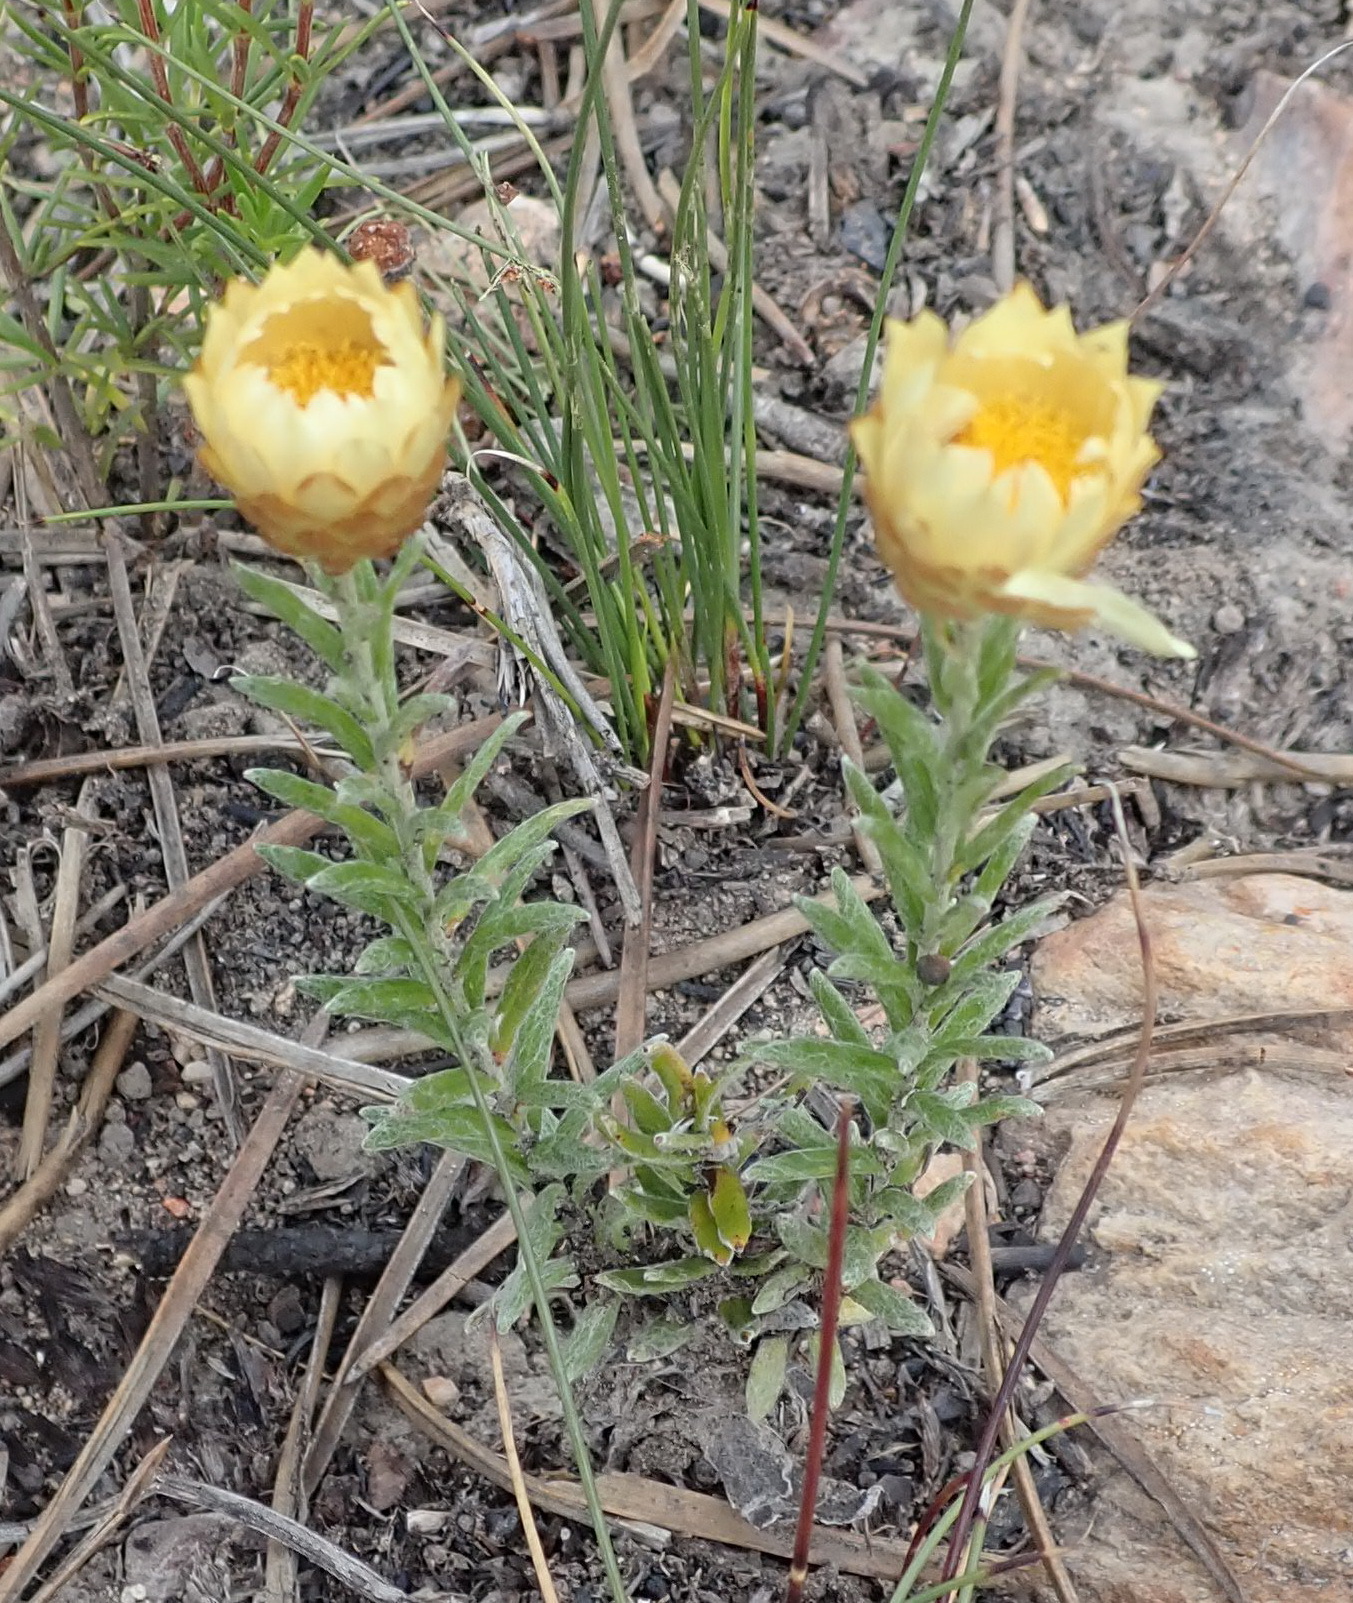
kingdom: Plantae
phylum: Tracheophyta
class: Magnoliopsida
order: Asterales
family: Asteraceae
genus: Helichrysum
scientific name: Helichrysum herbaceum
